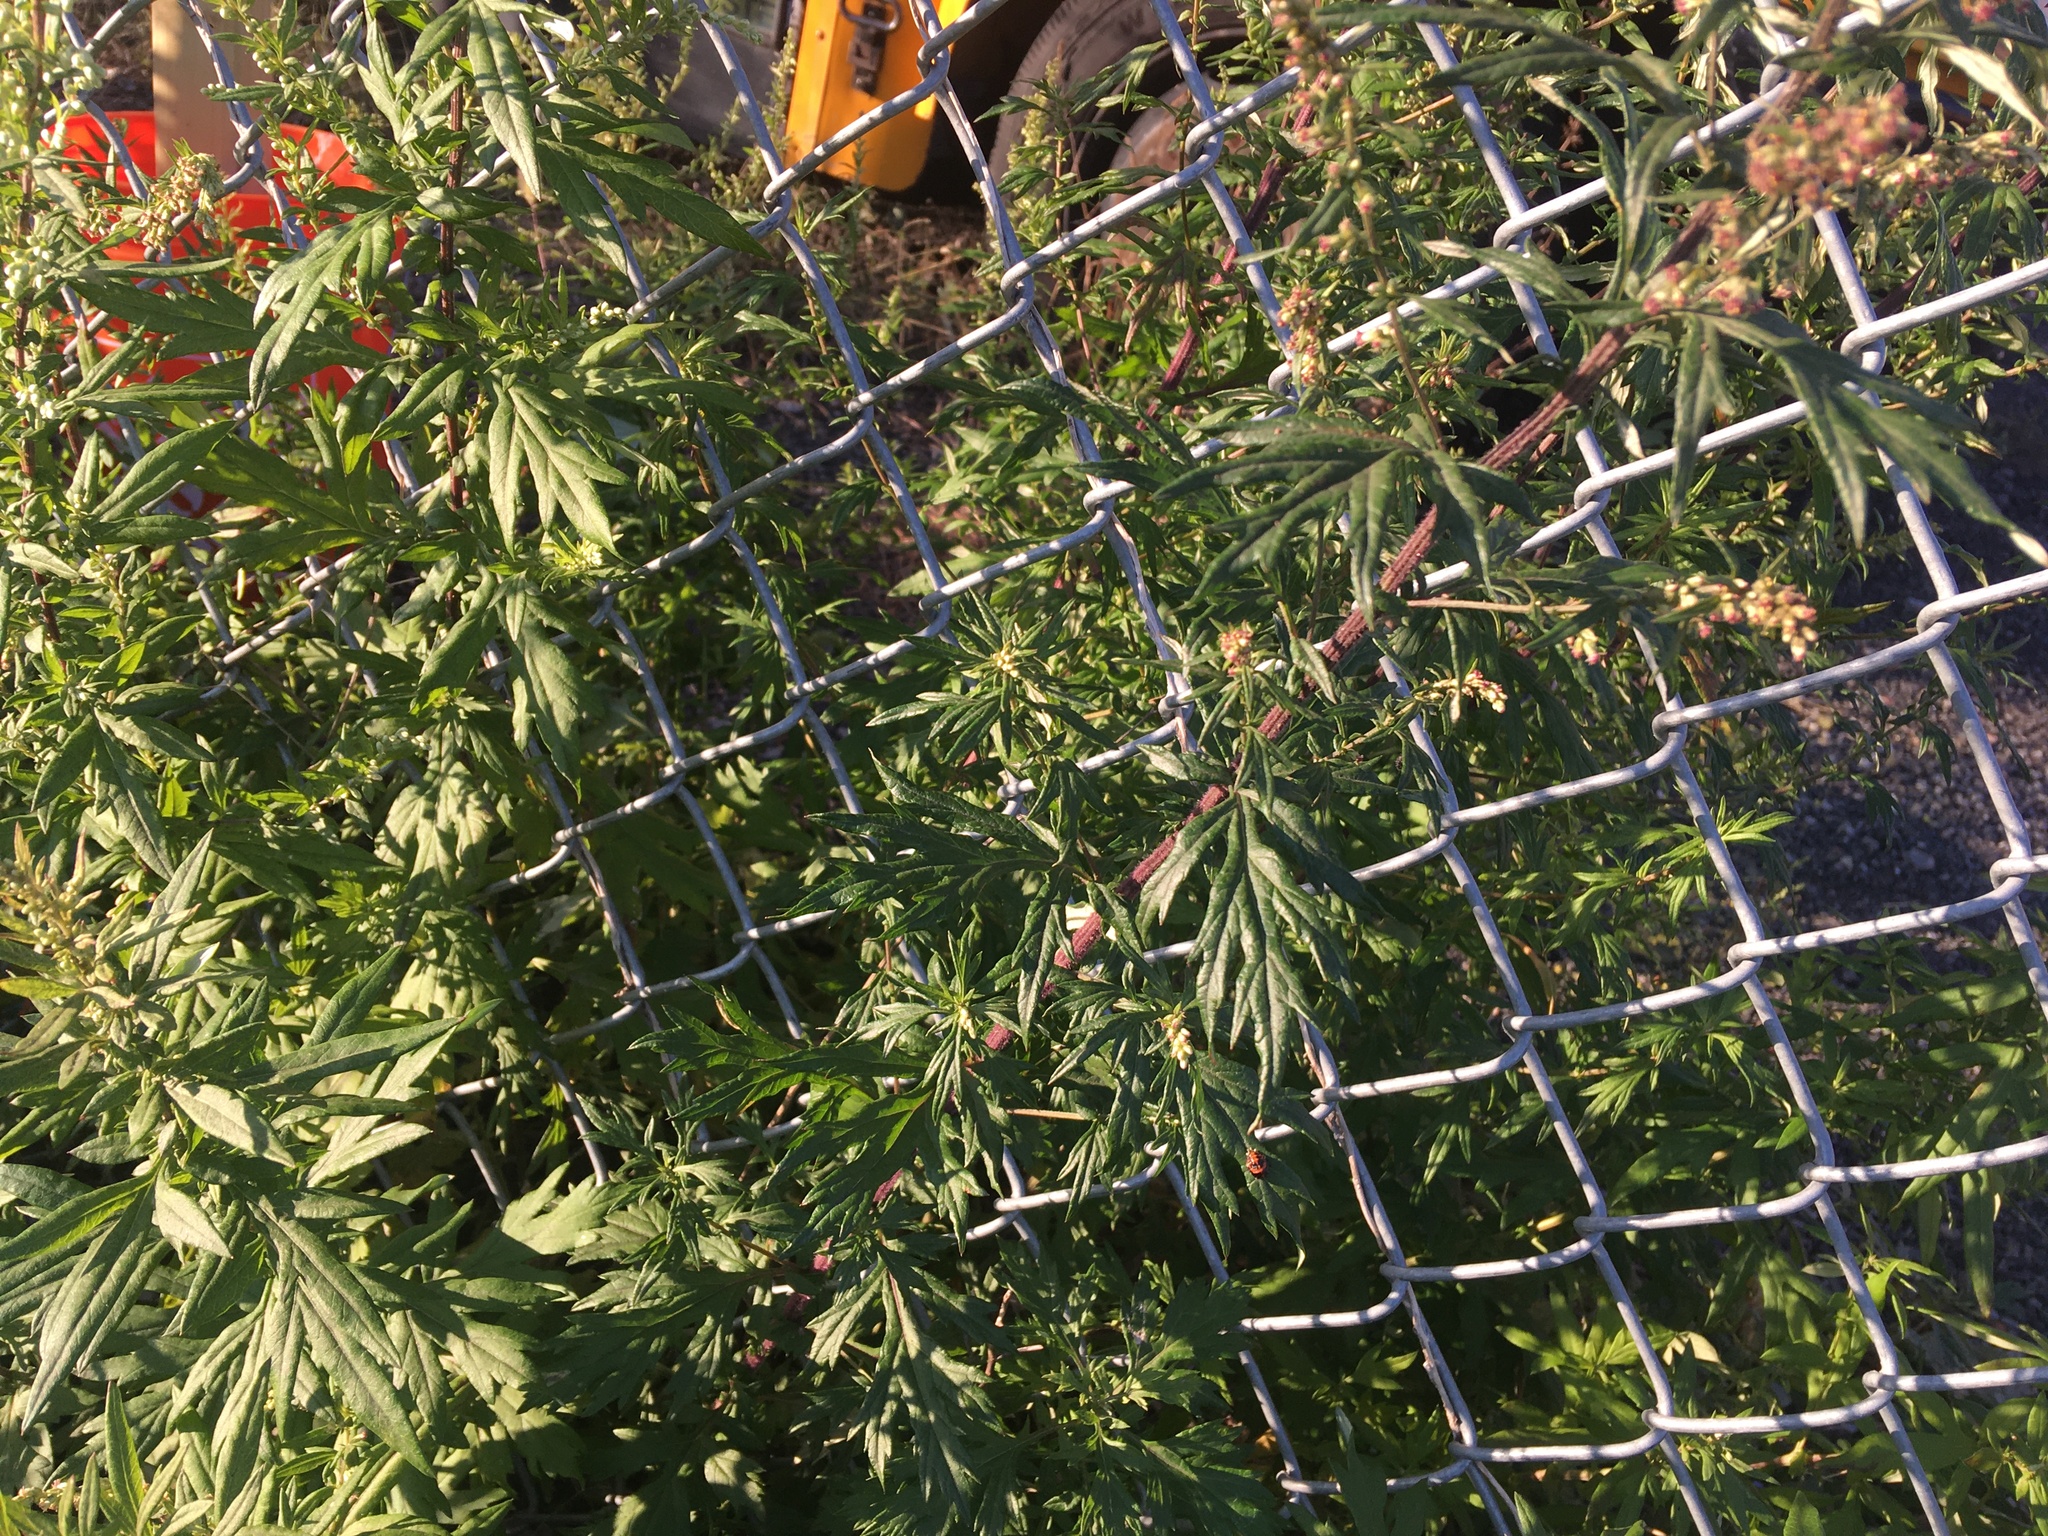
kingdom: Plantae
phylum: Tracheophyta
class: Magnoliopsida
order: Asterales
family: Asteraceae
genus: Artemisia
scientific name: Artemisia vulgaris
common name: Mugwort
